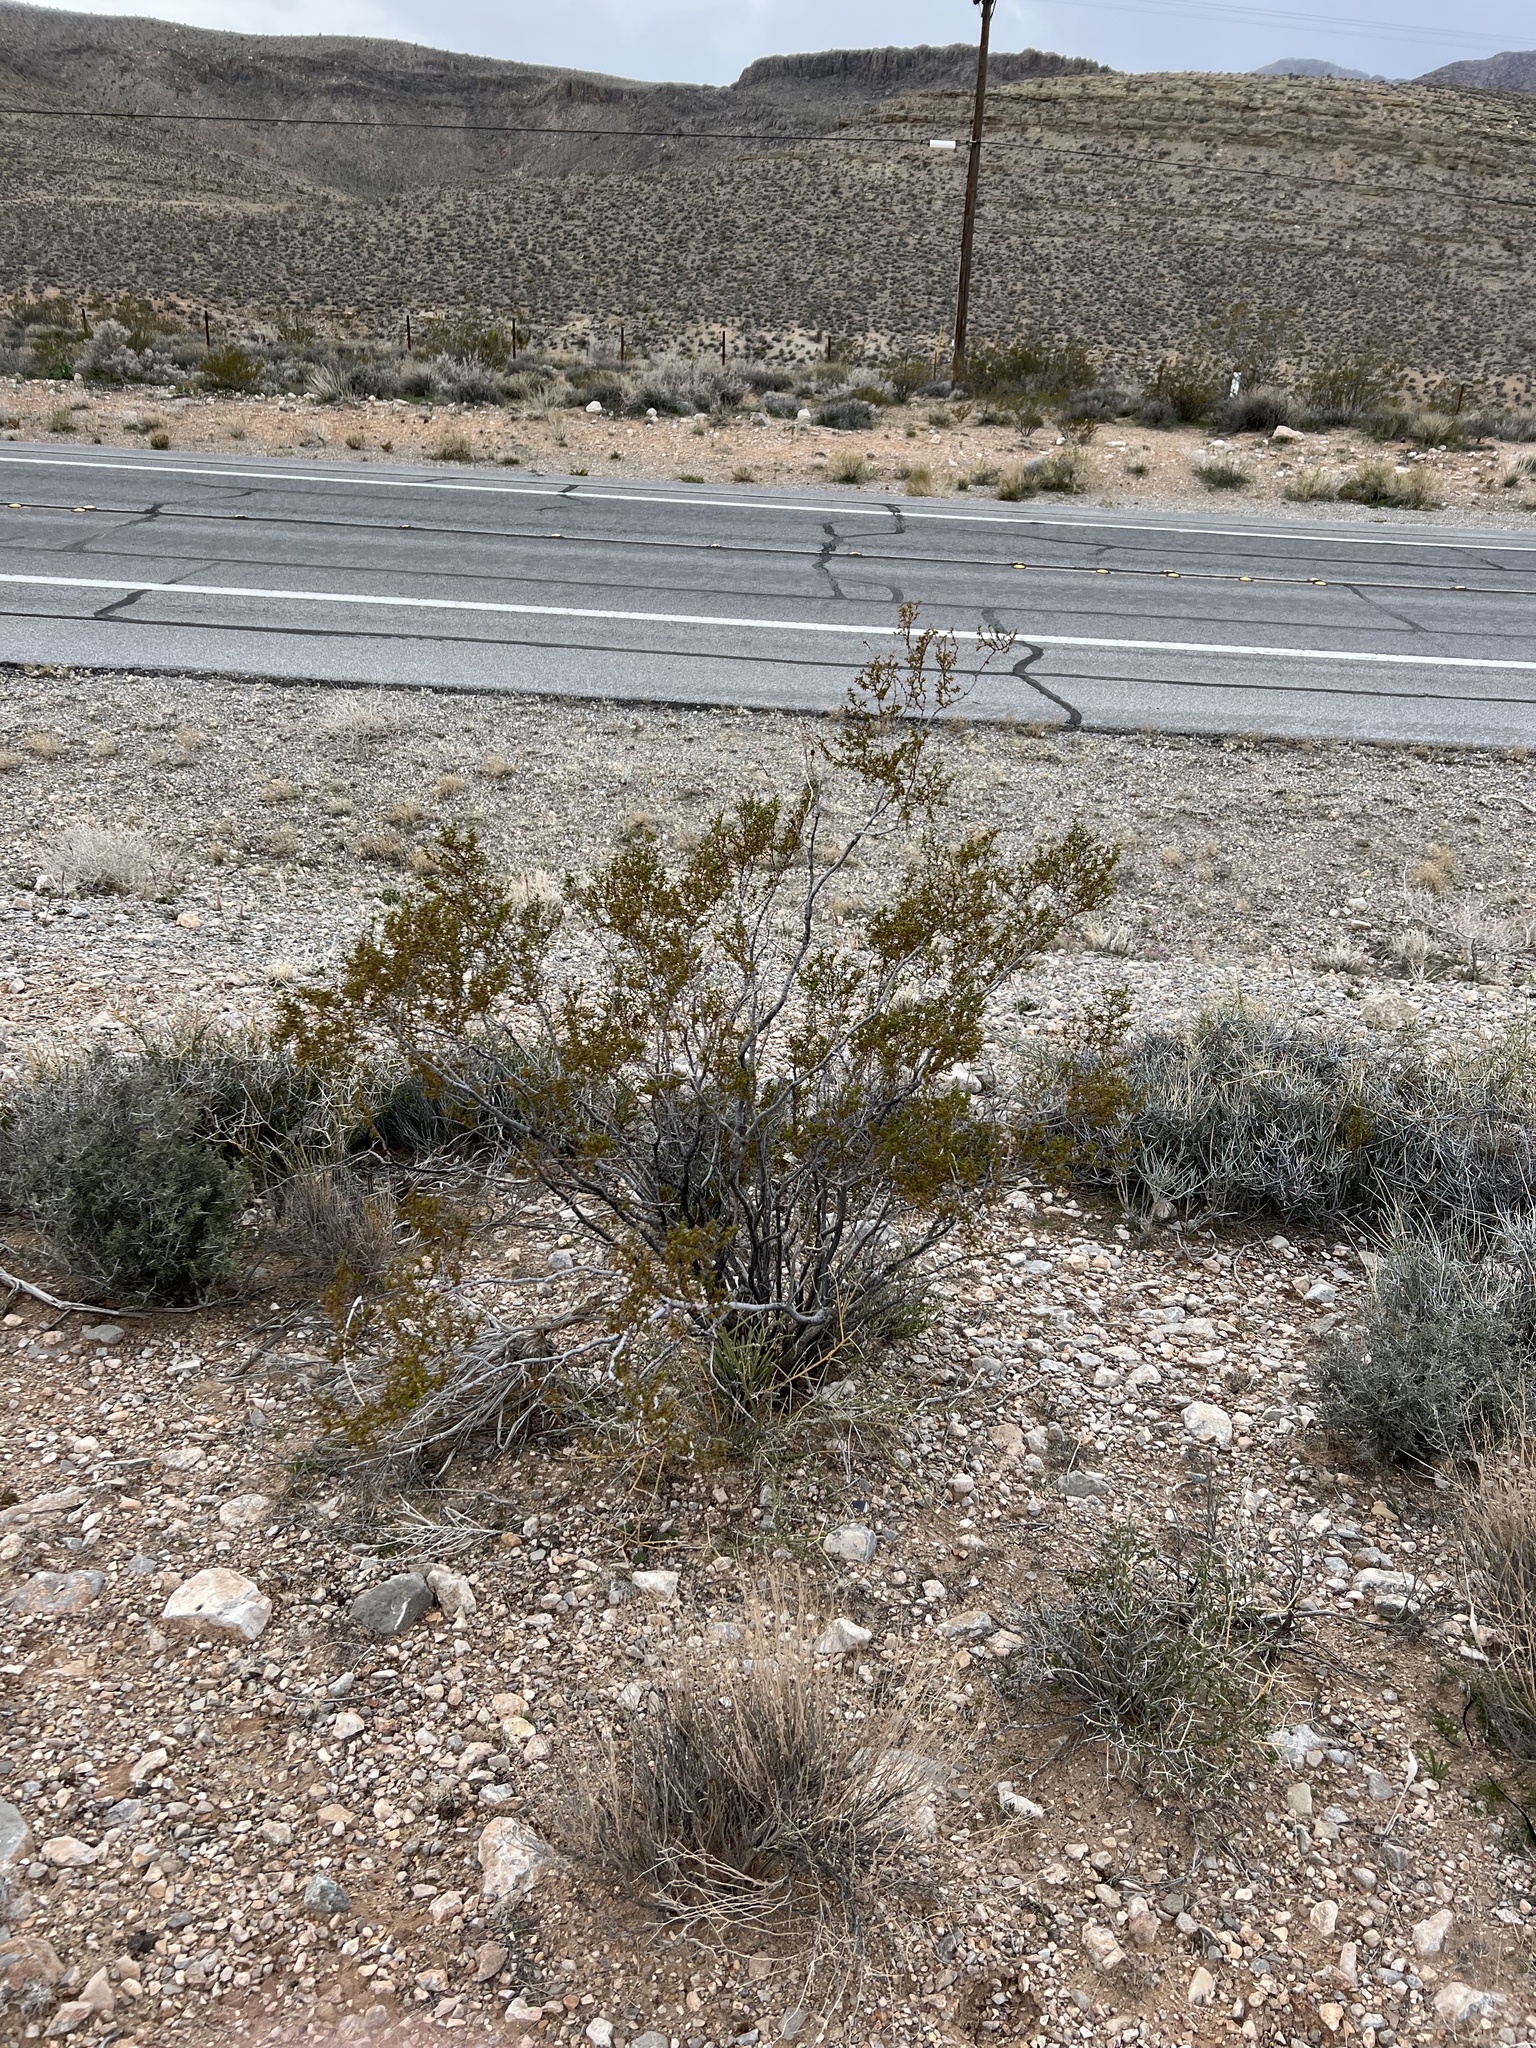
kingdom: Plantae
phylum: Tracheophyta
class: Magnoliopsida
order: Zygophyllales
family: Zygophyllaceae
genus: Larrea
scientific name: Larrea tridentata
